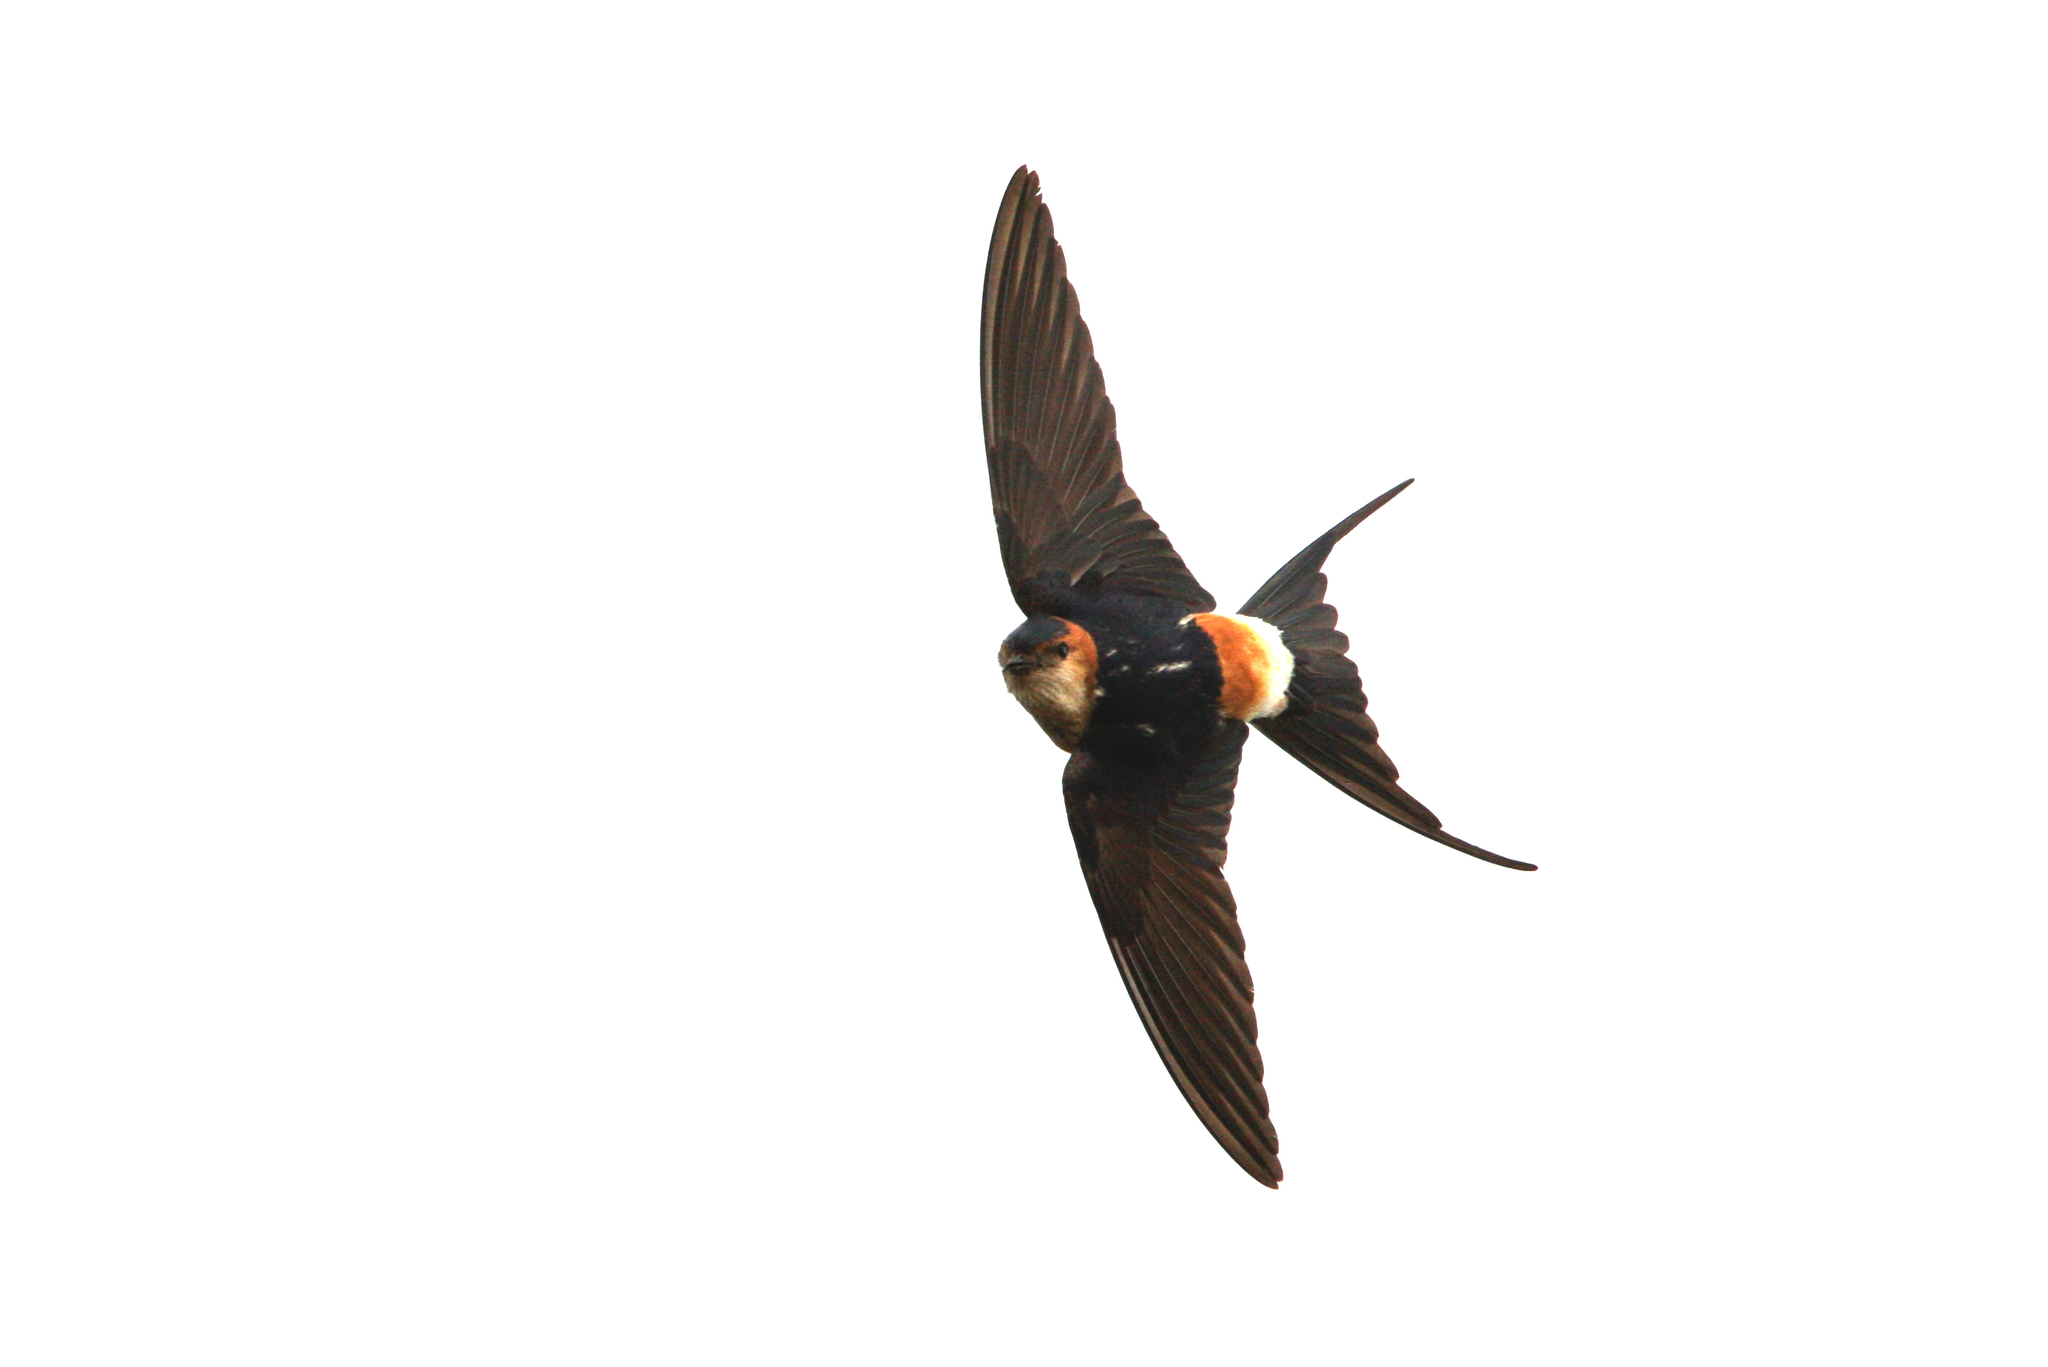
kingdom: Animalia
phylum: Chordata
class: Aves
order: Passeriformes
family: Hirundinidae
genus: Cecropis
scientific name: Cecropis daurica
